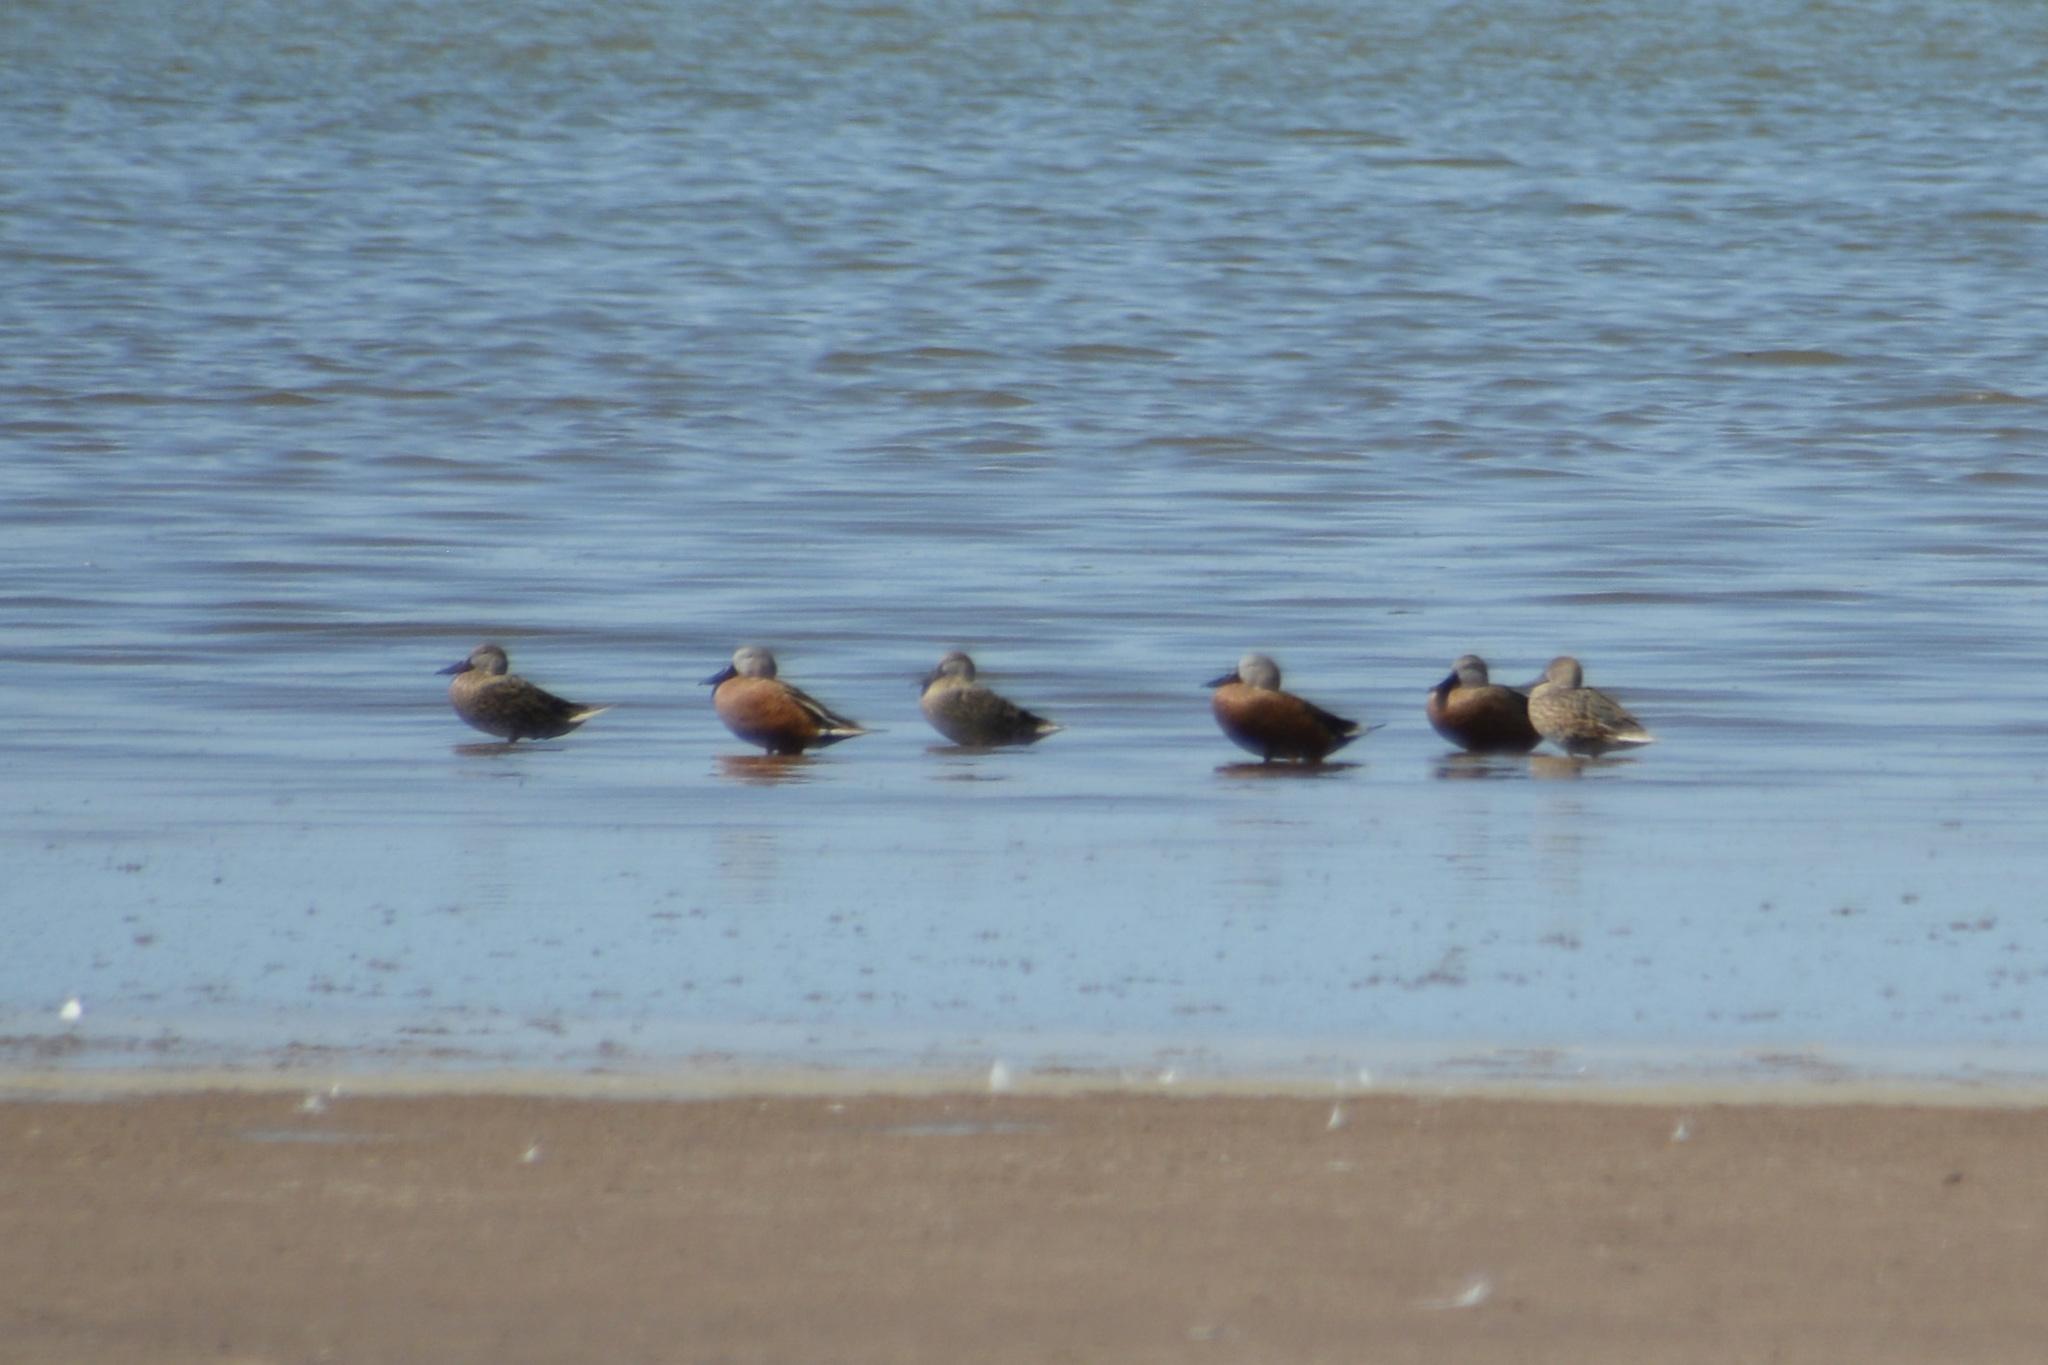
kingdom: Animalia
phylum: Chordata
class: Aves
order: Anseriformes
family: Anatidae
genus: Spatula
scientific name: Spatula platalea
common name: Red shoveler
